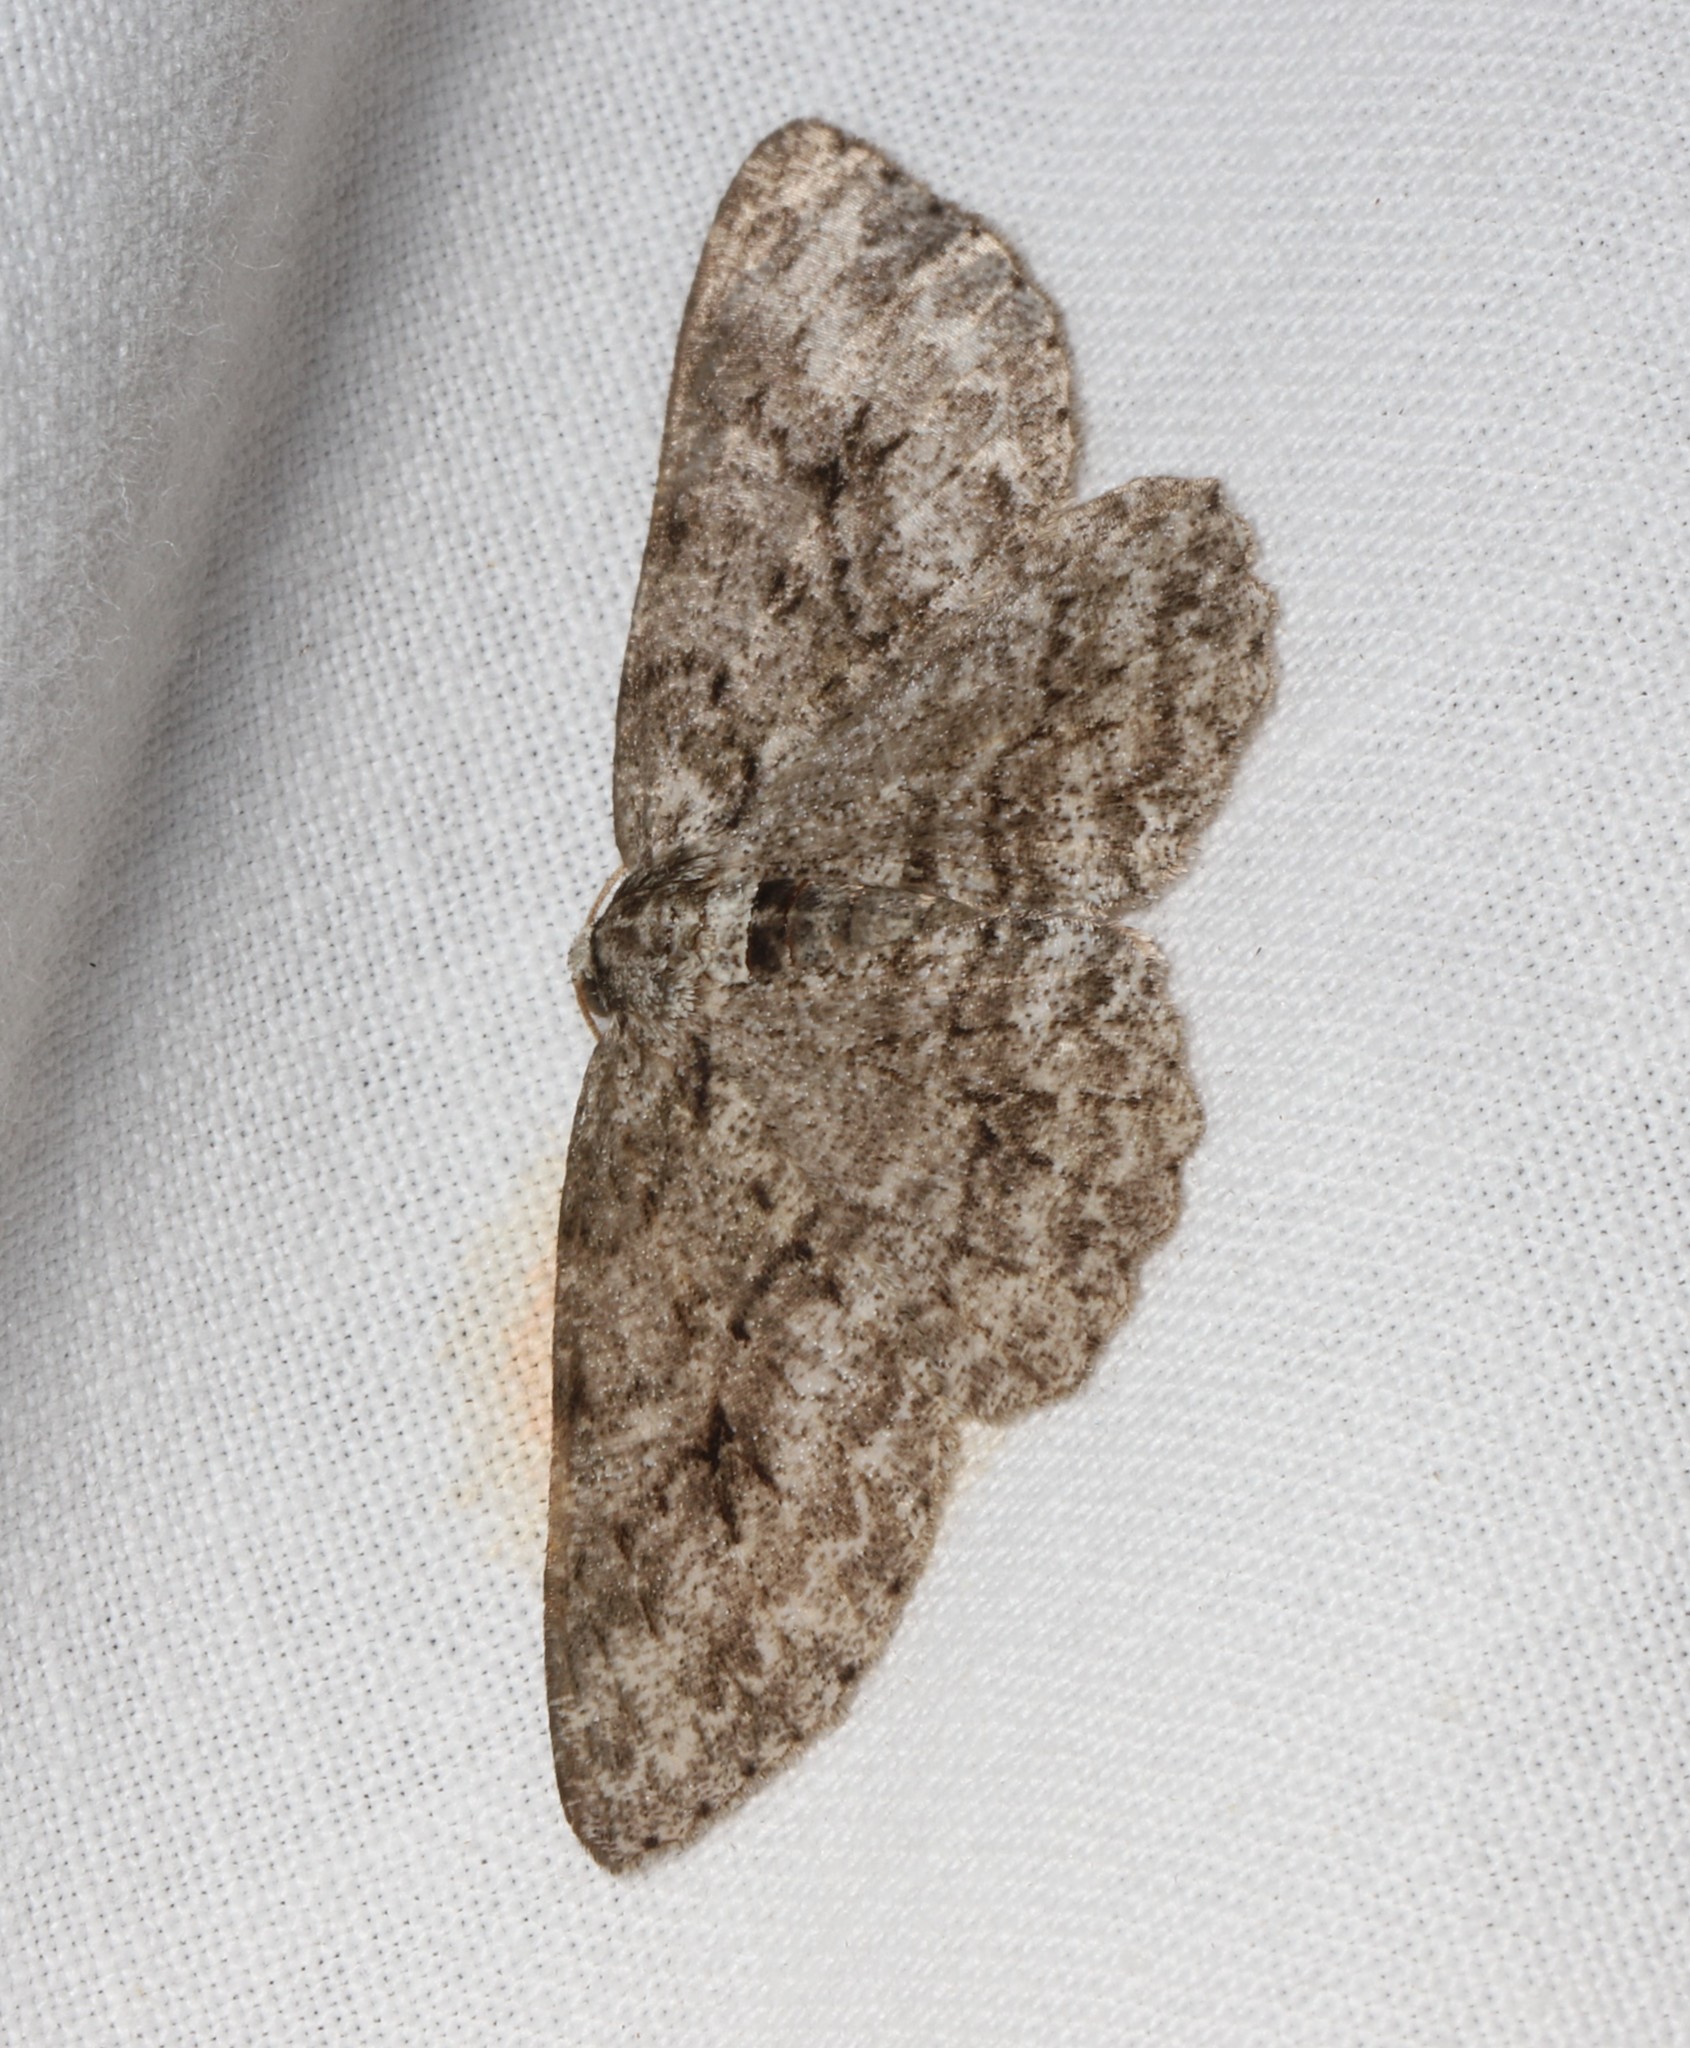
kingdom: Animalia
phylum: Arthropoda
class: Insecta
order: Lepidoptera
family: Geometridae
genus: Ectropis
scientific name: Ectropis crepuscularia
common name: Engrailed
